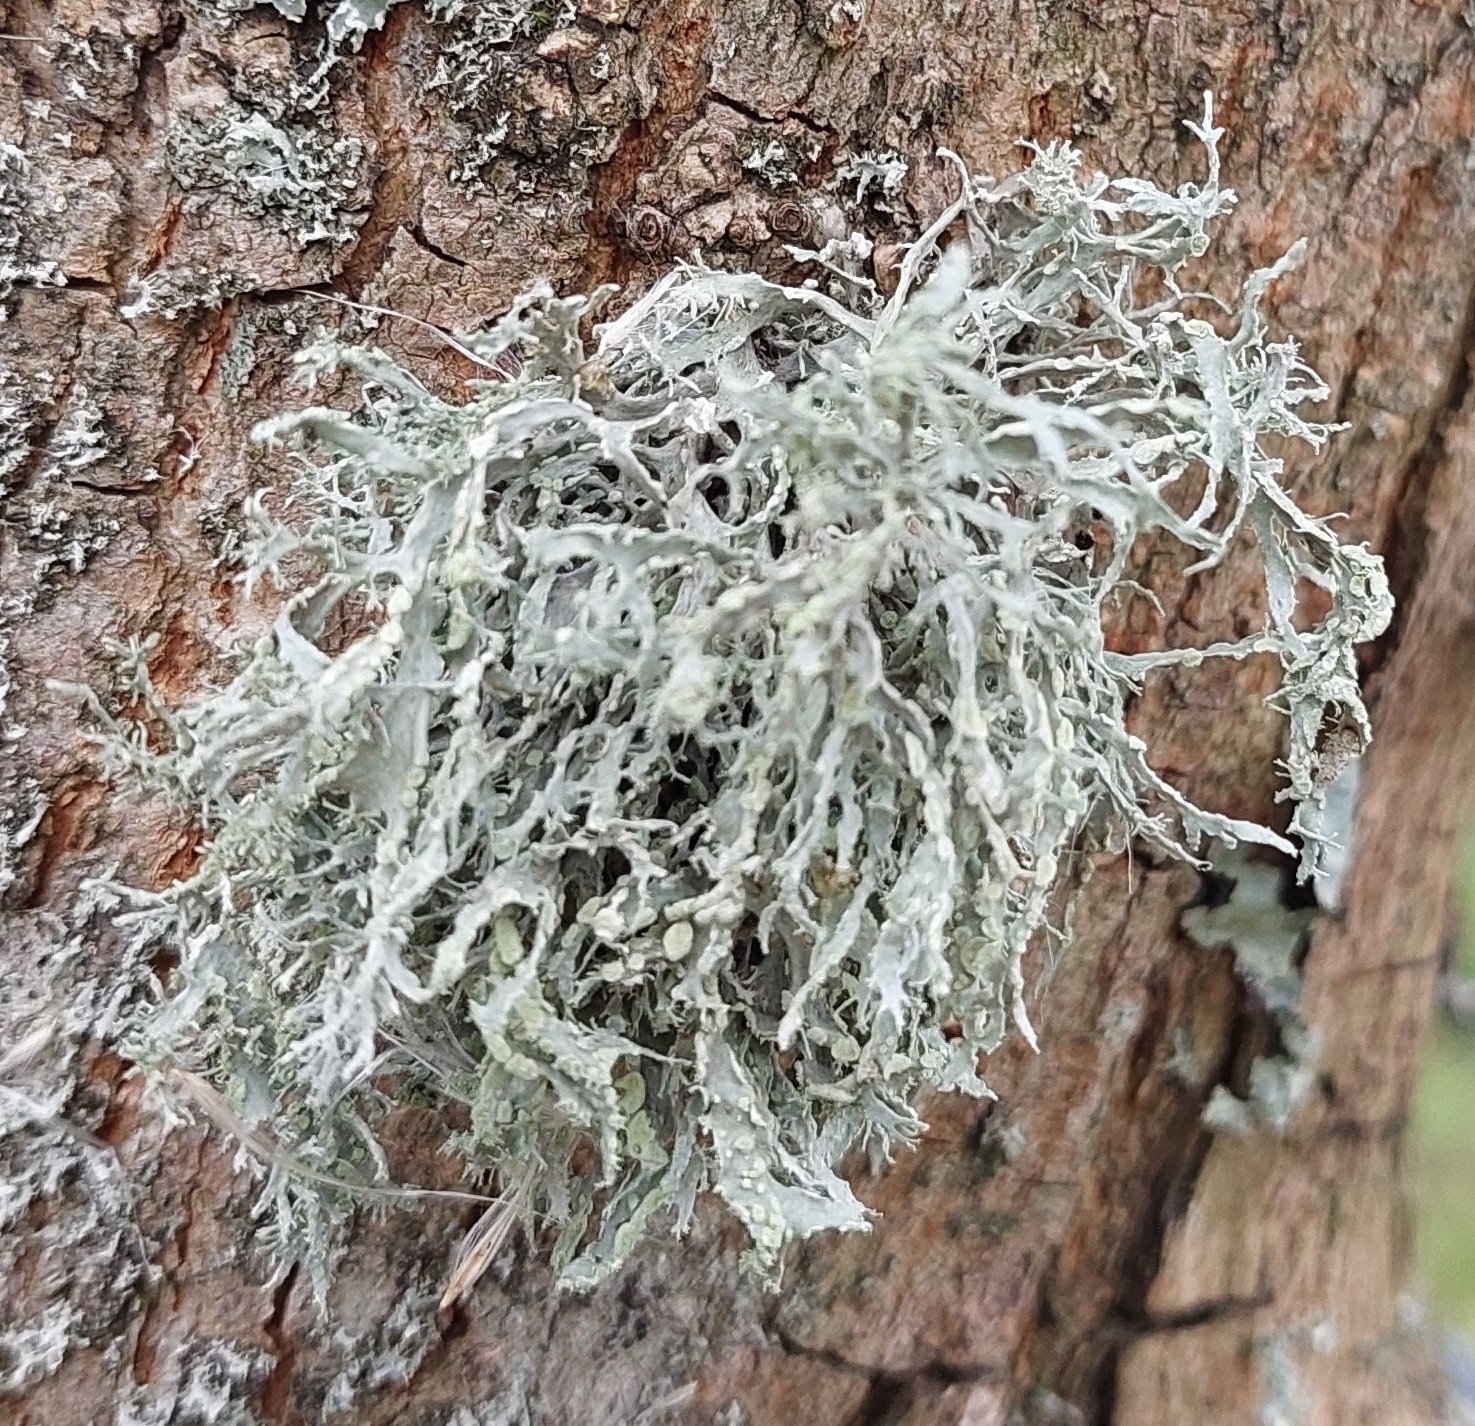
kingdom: Fungi
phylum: Ascomycota
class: Lecanoromycetes
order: Lecanorales
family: Ramalinaceae
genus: Ramalina
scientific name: Ramalina farinacea
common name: Farinose cartilage lichen
